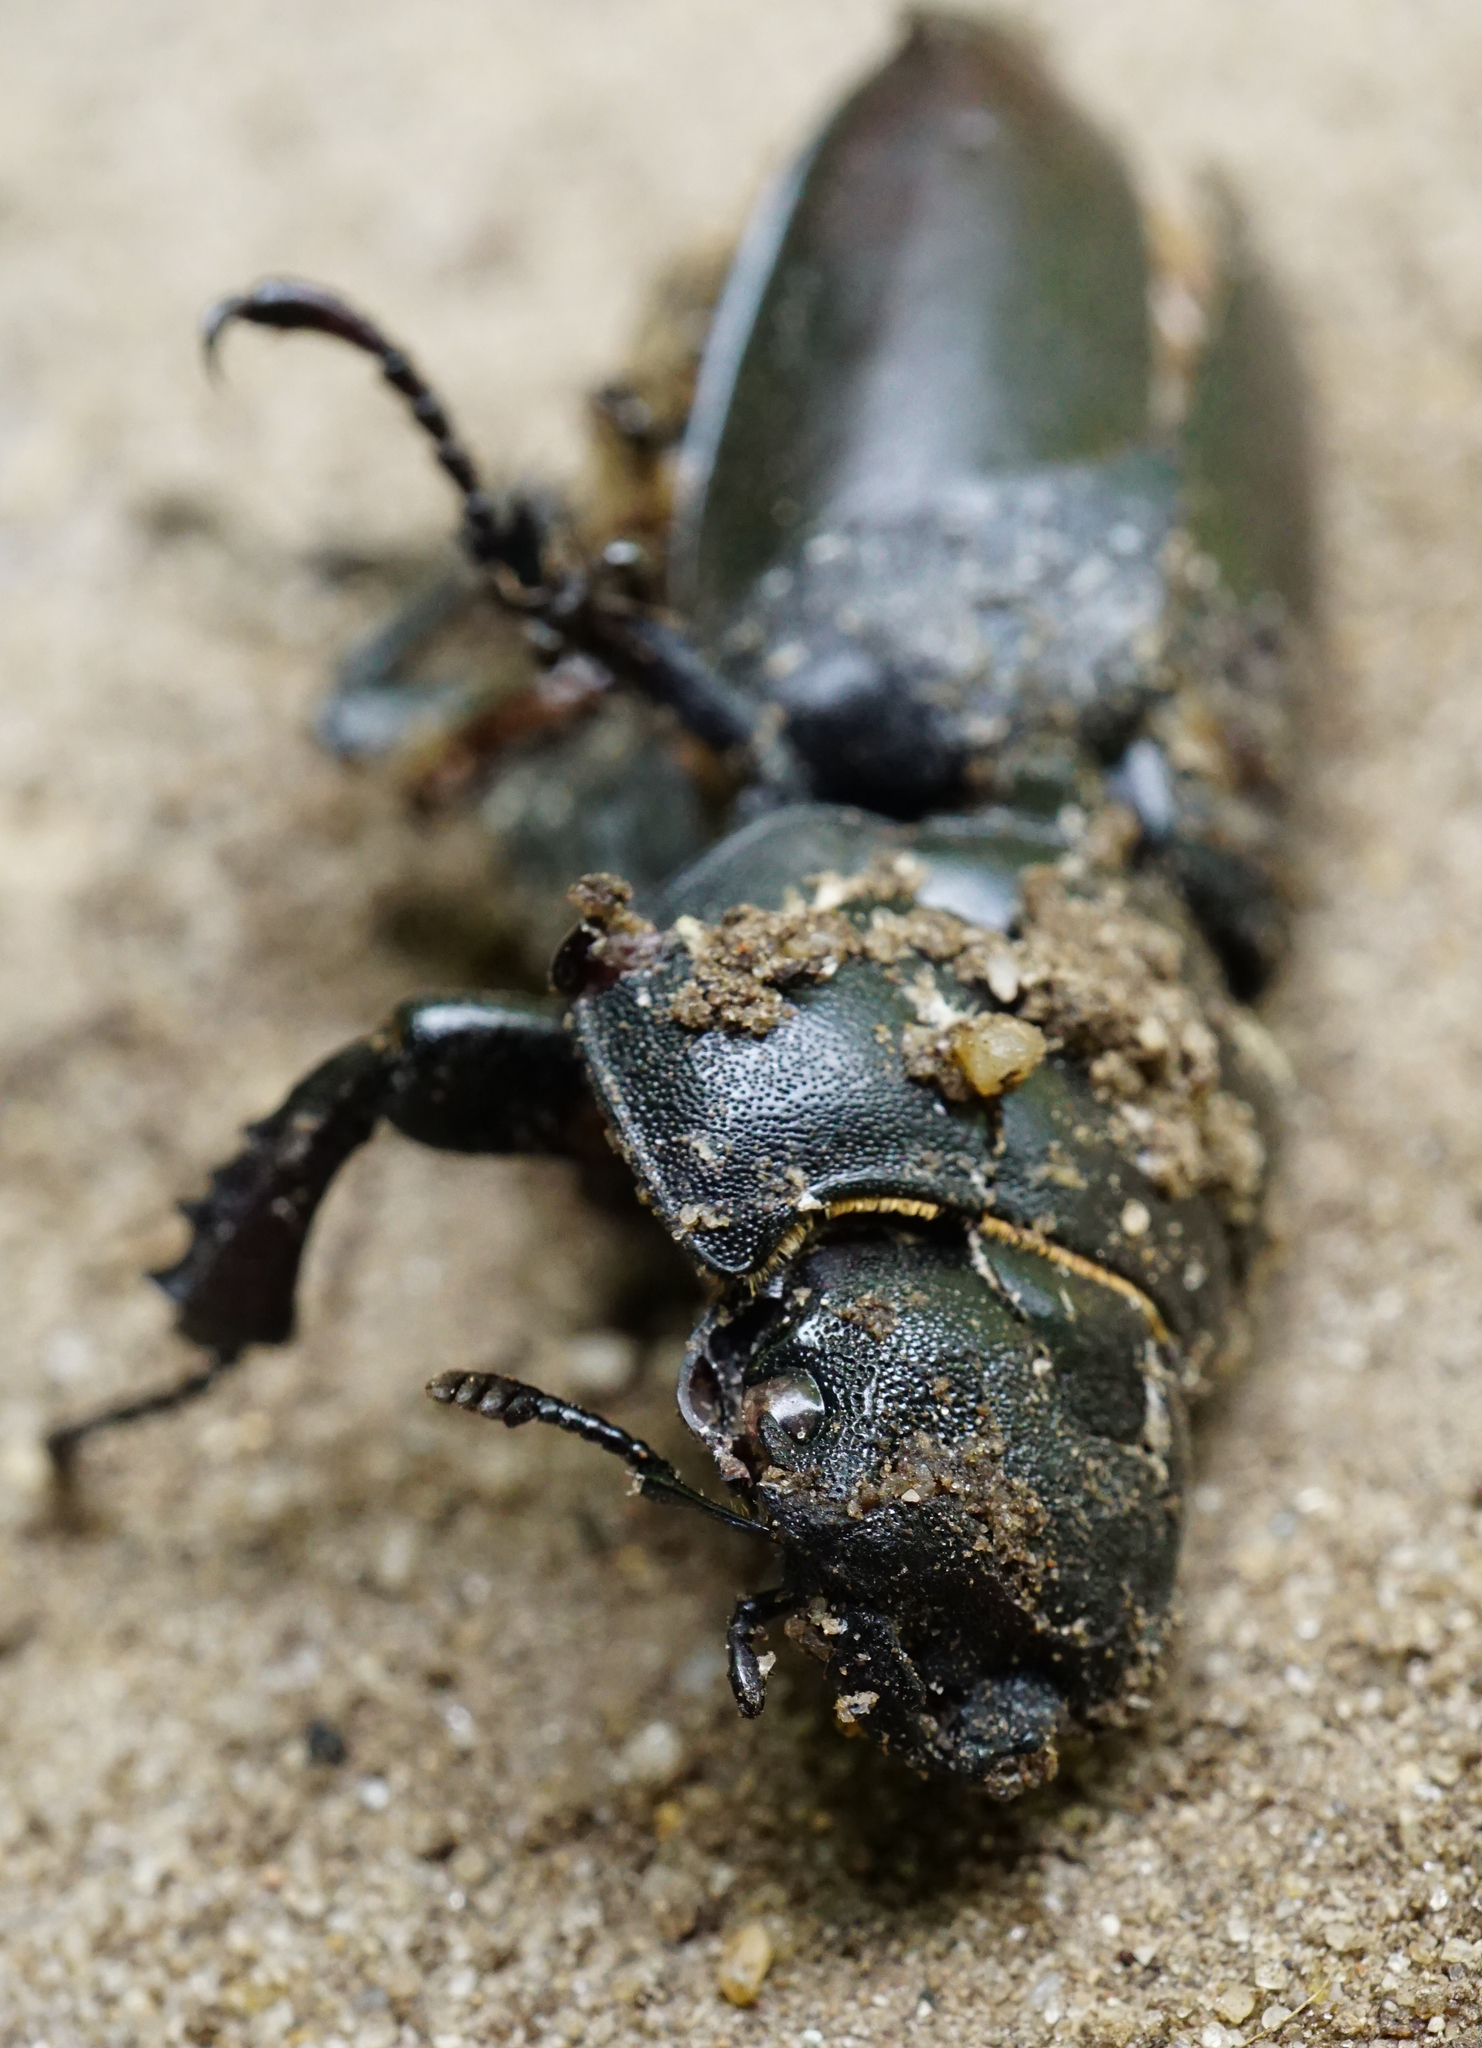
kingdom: Animalia
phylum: Arthropoda
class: Insecta
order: Coleoptera
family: Lucanidae
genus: Lucanus
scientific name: Lucanus cervus
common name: Stag beetle
